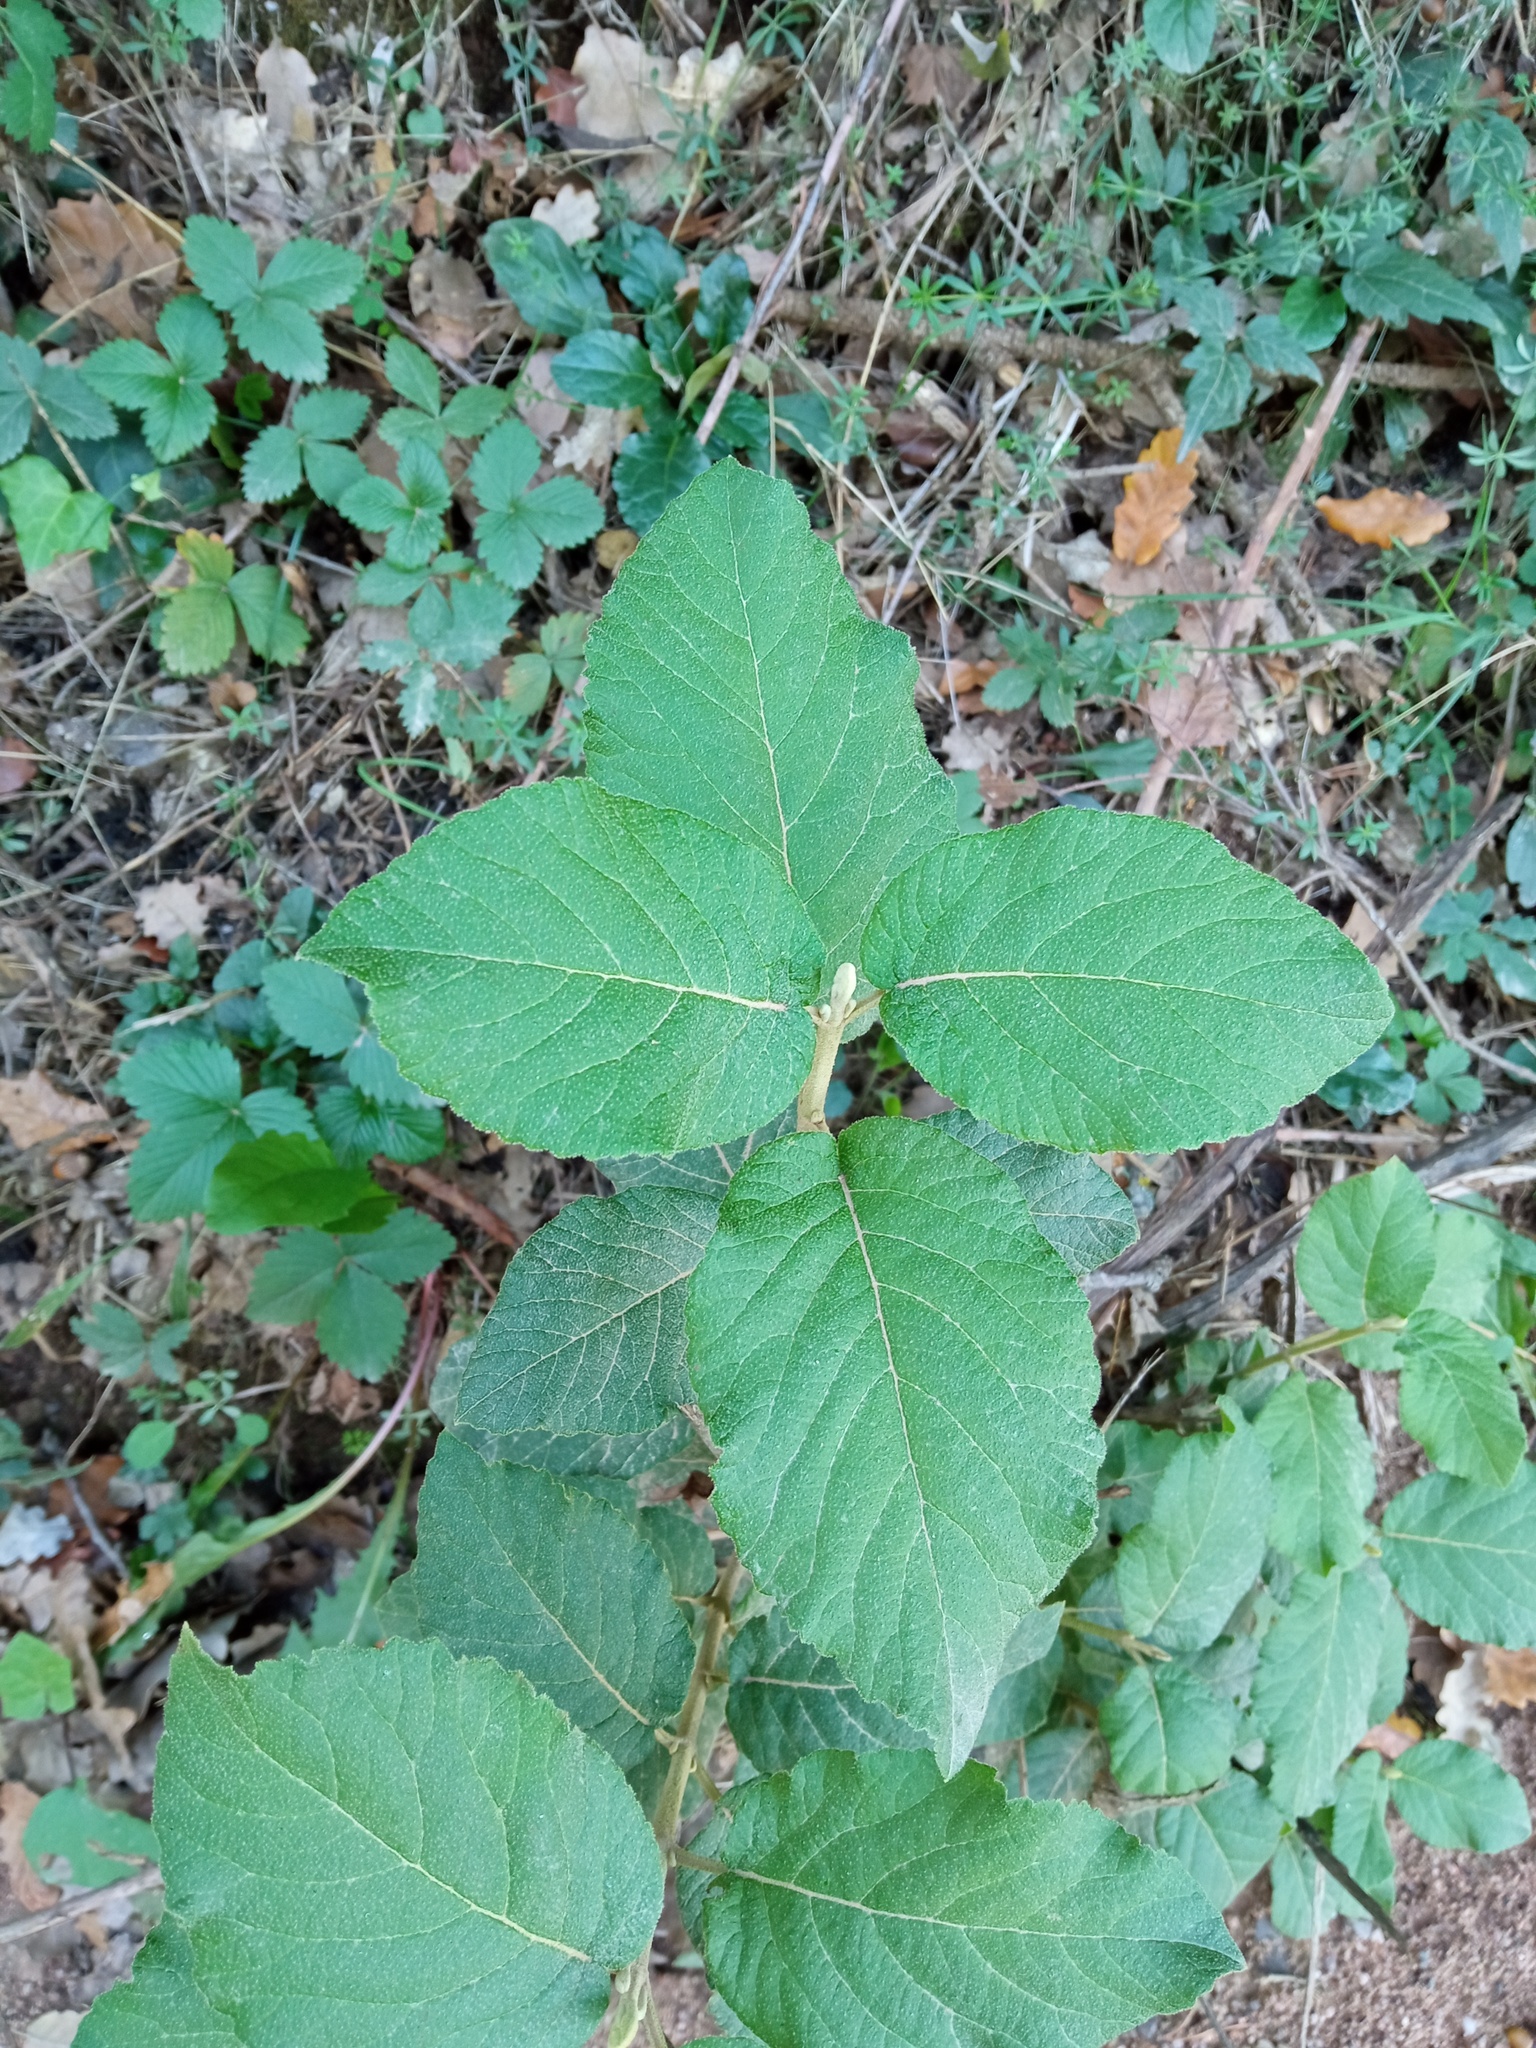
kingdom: Plantae
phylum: Tracheophyta
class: Magnoliopsida
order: Dipsacales
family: Viburnaceae
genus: Viburnum
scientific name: Viburnum lantana
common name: Wayfaring tree
